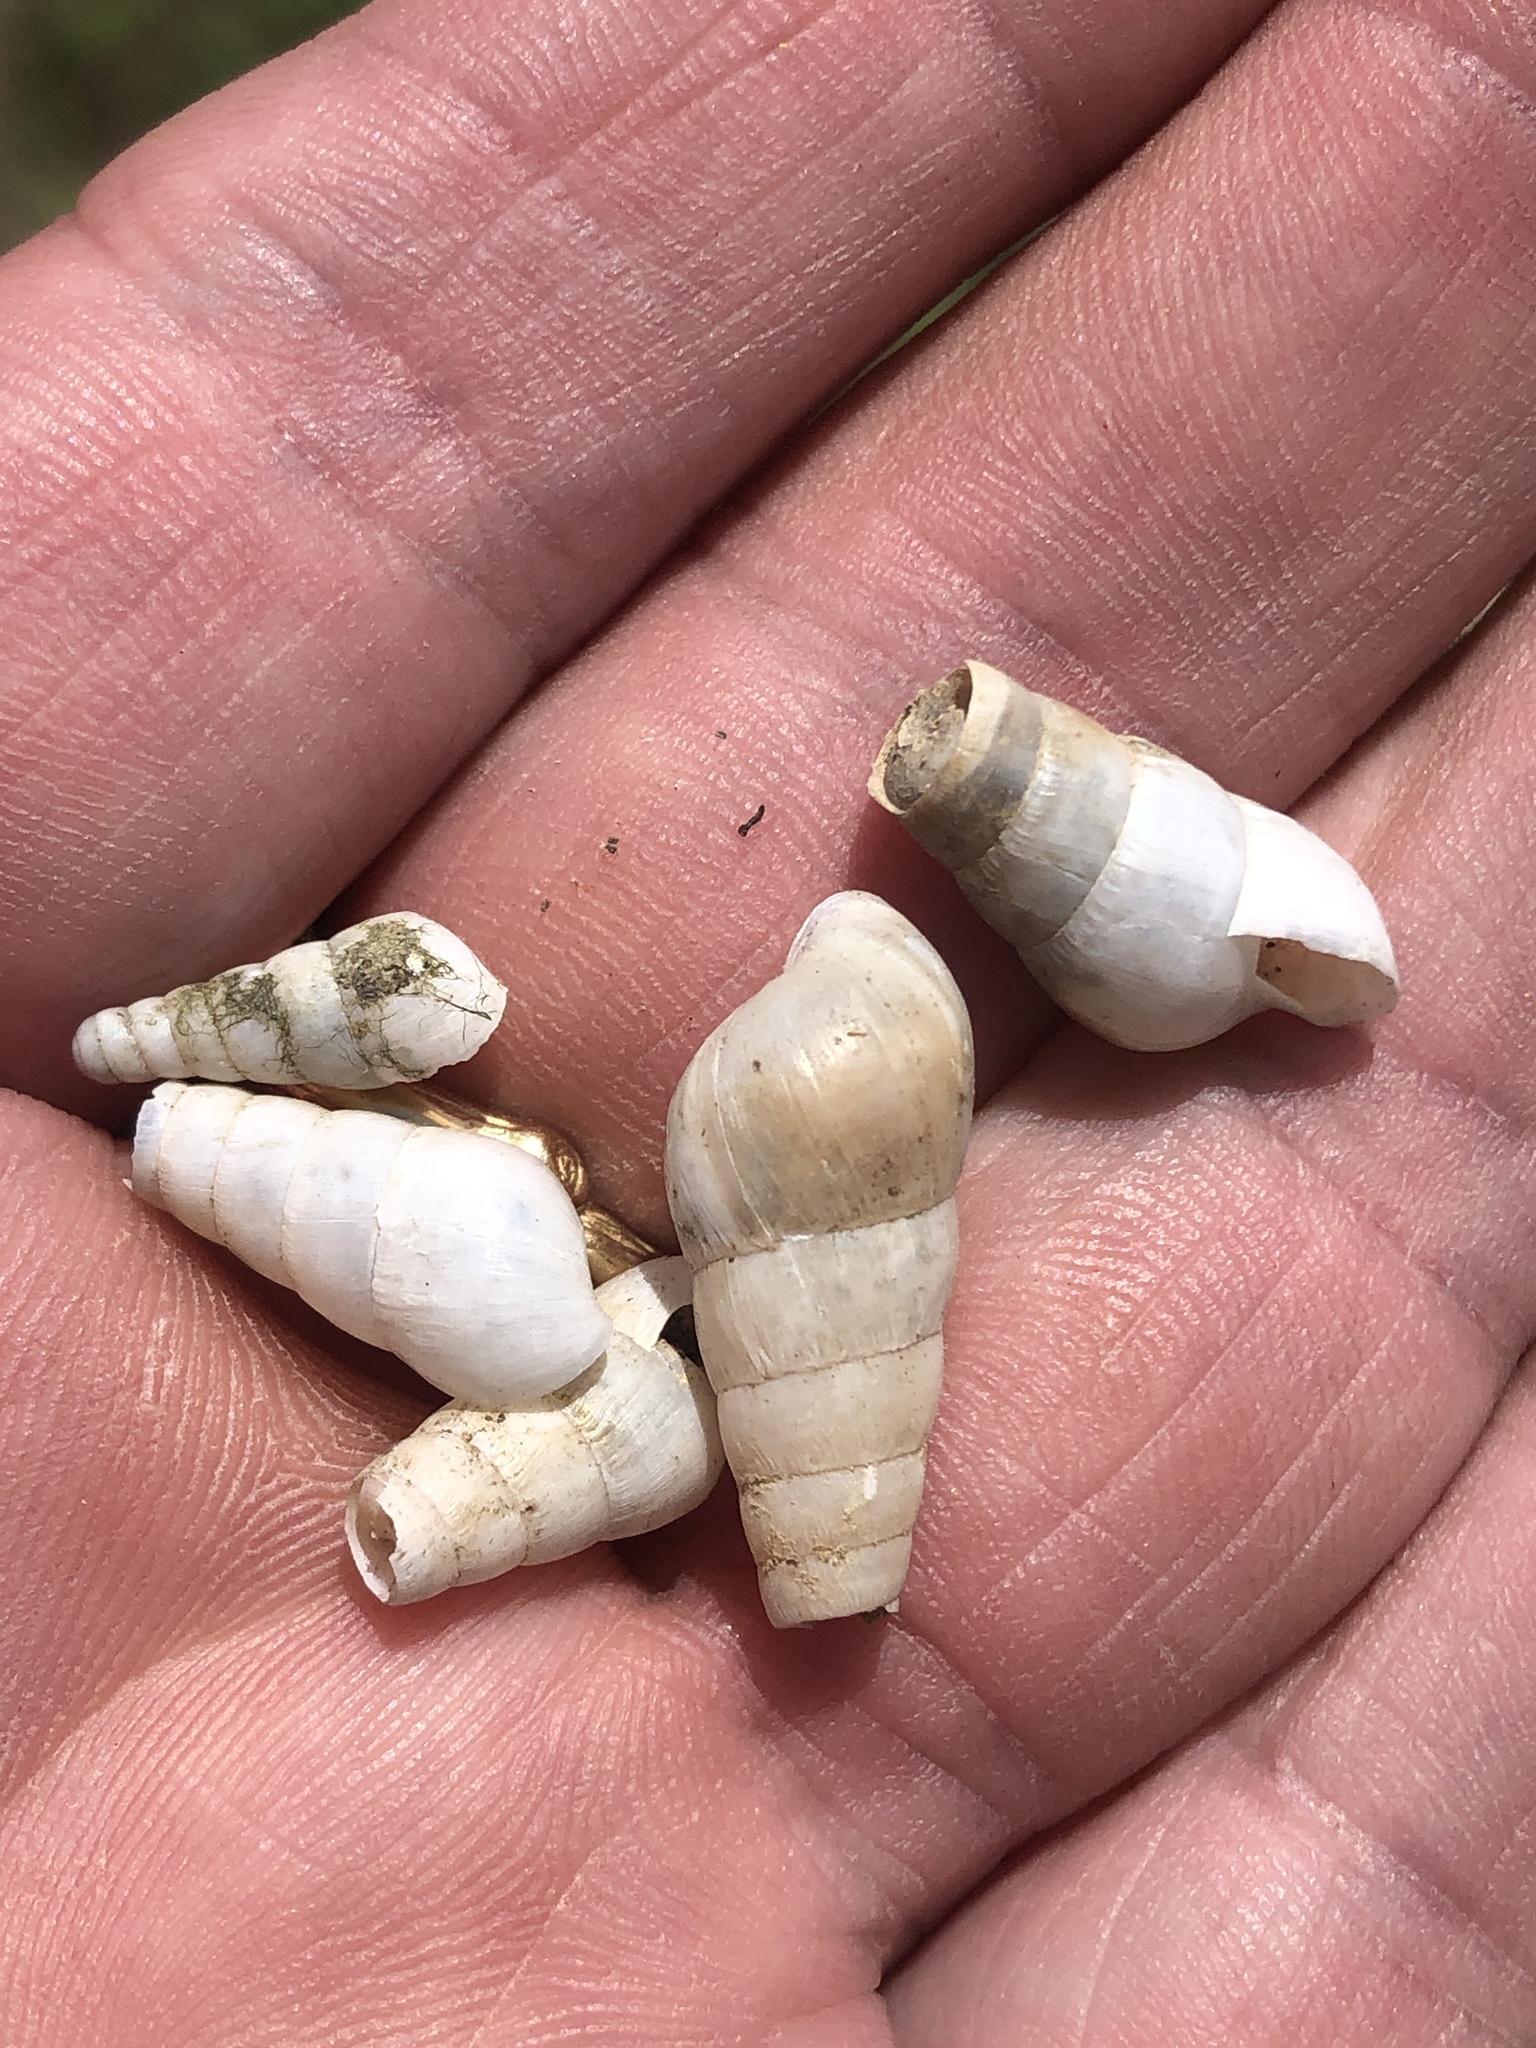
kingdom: Animalia
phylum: Mollusca
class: Gastropoda
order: Stylommatophora
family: Achatinidae
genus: Rumina
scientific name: Rumina decollata
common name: Decollate snail
